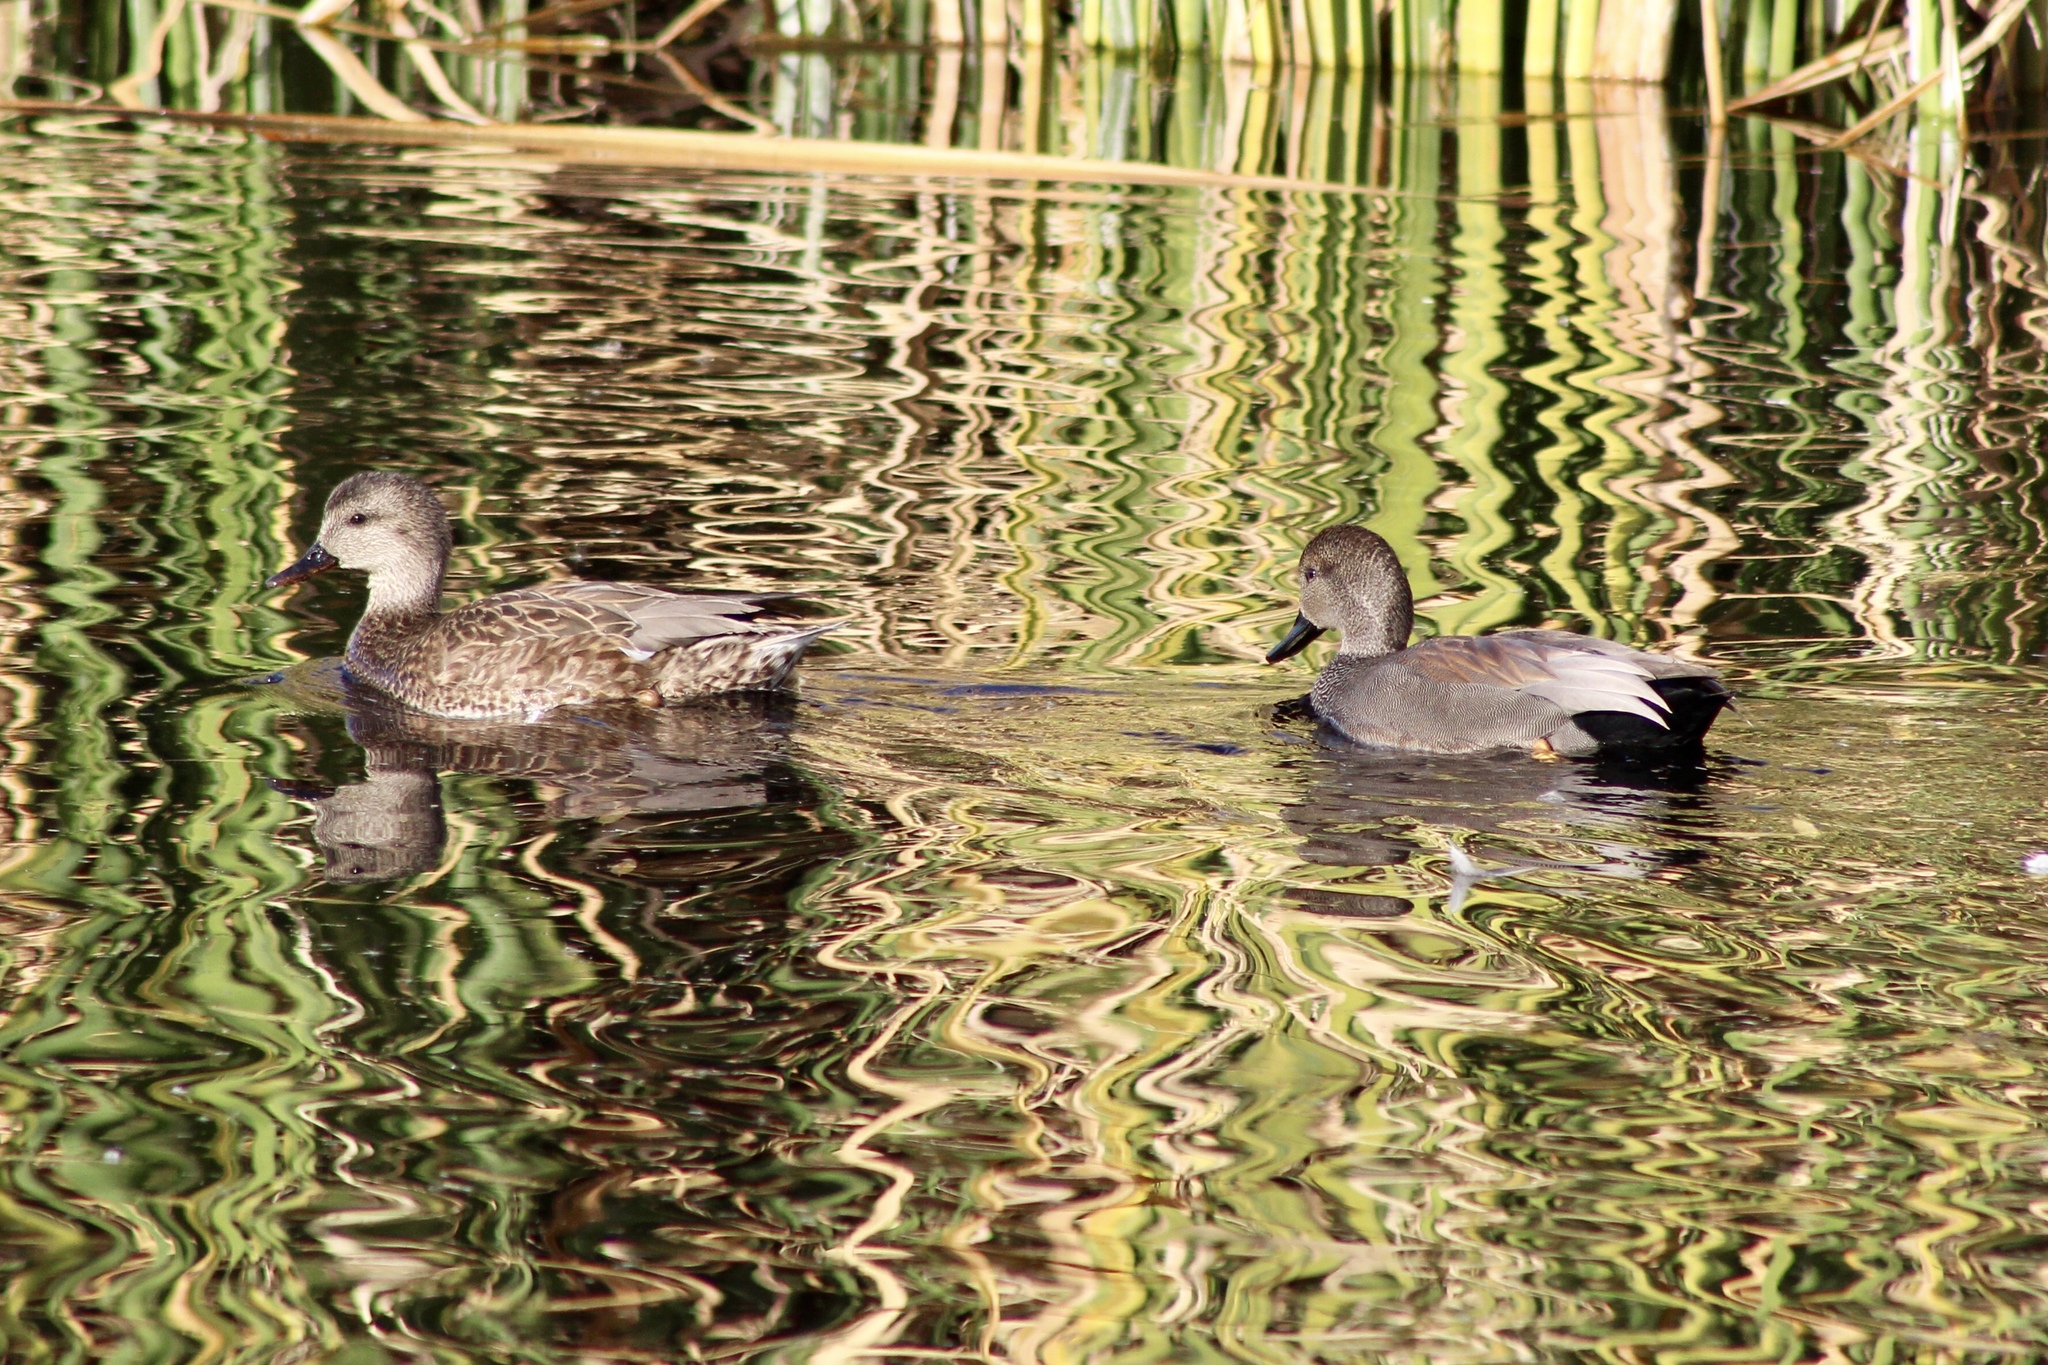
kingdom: Animalia
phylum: Chordata
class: Aves
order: Anseriformes
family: Anatidae
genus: Mareca
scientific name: Mareca strepera
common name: Gadwall
